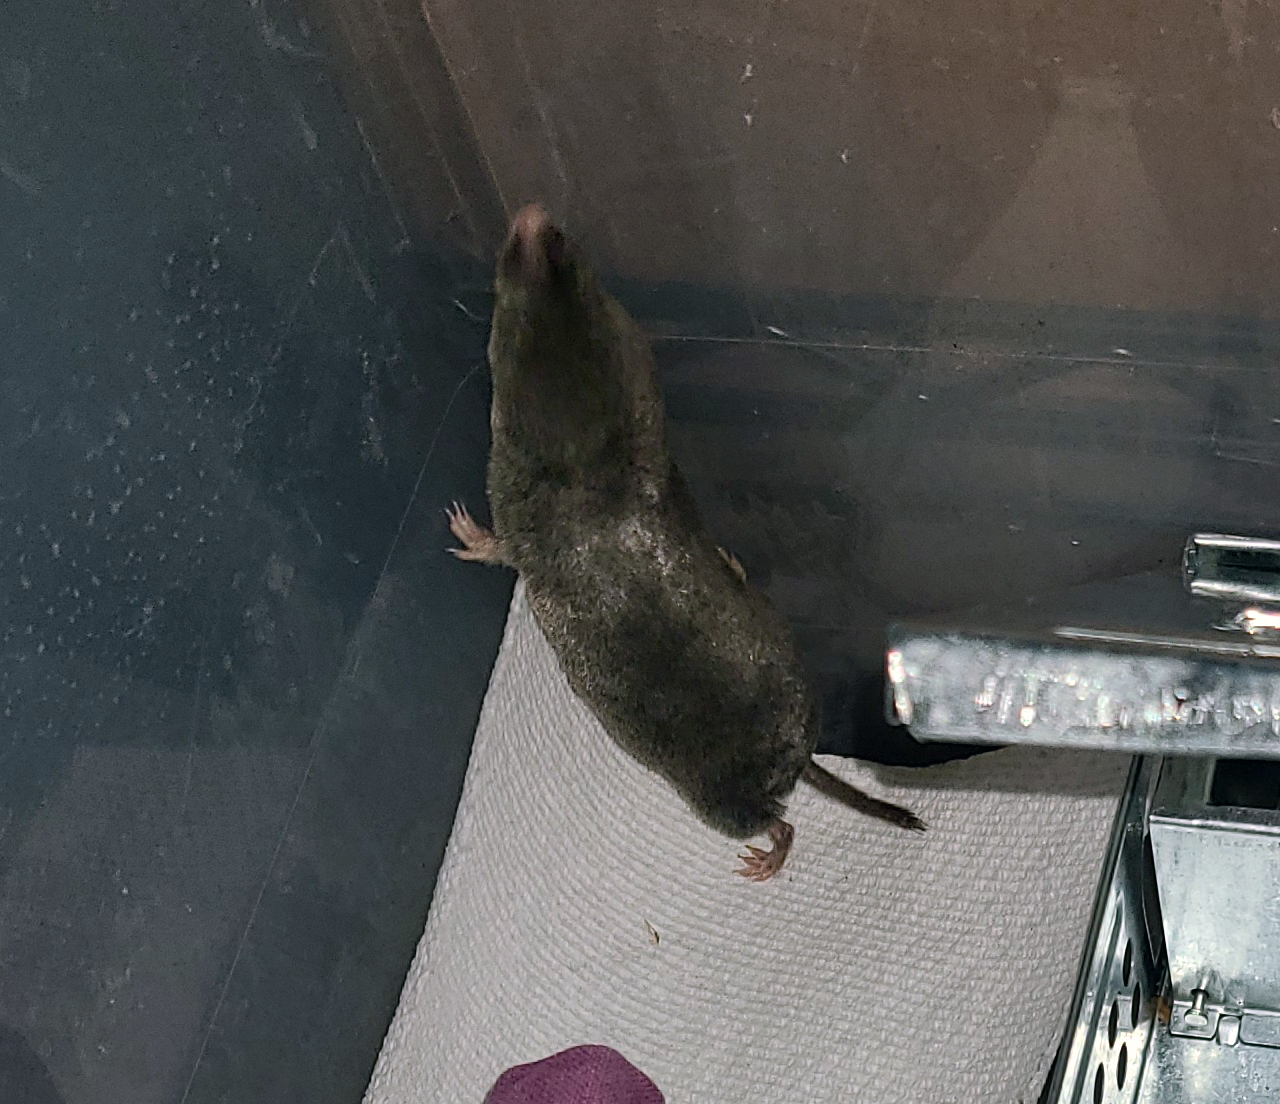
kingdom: Animalia
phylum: Chordata
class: Mammalia
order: Soricomorpha
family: Soricidae
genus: Blarina
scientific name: Blarina brevicauda
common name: Northern short-tailed shrew
